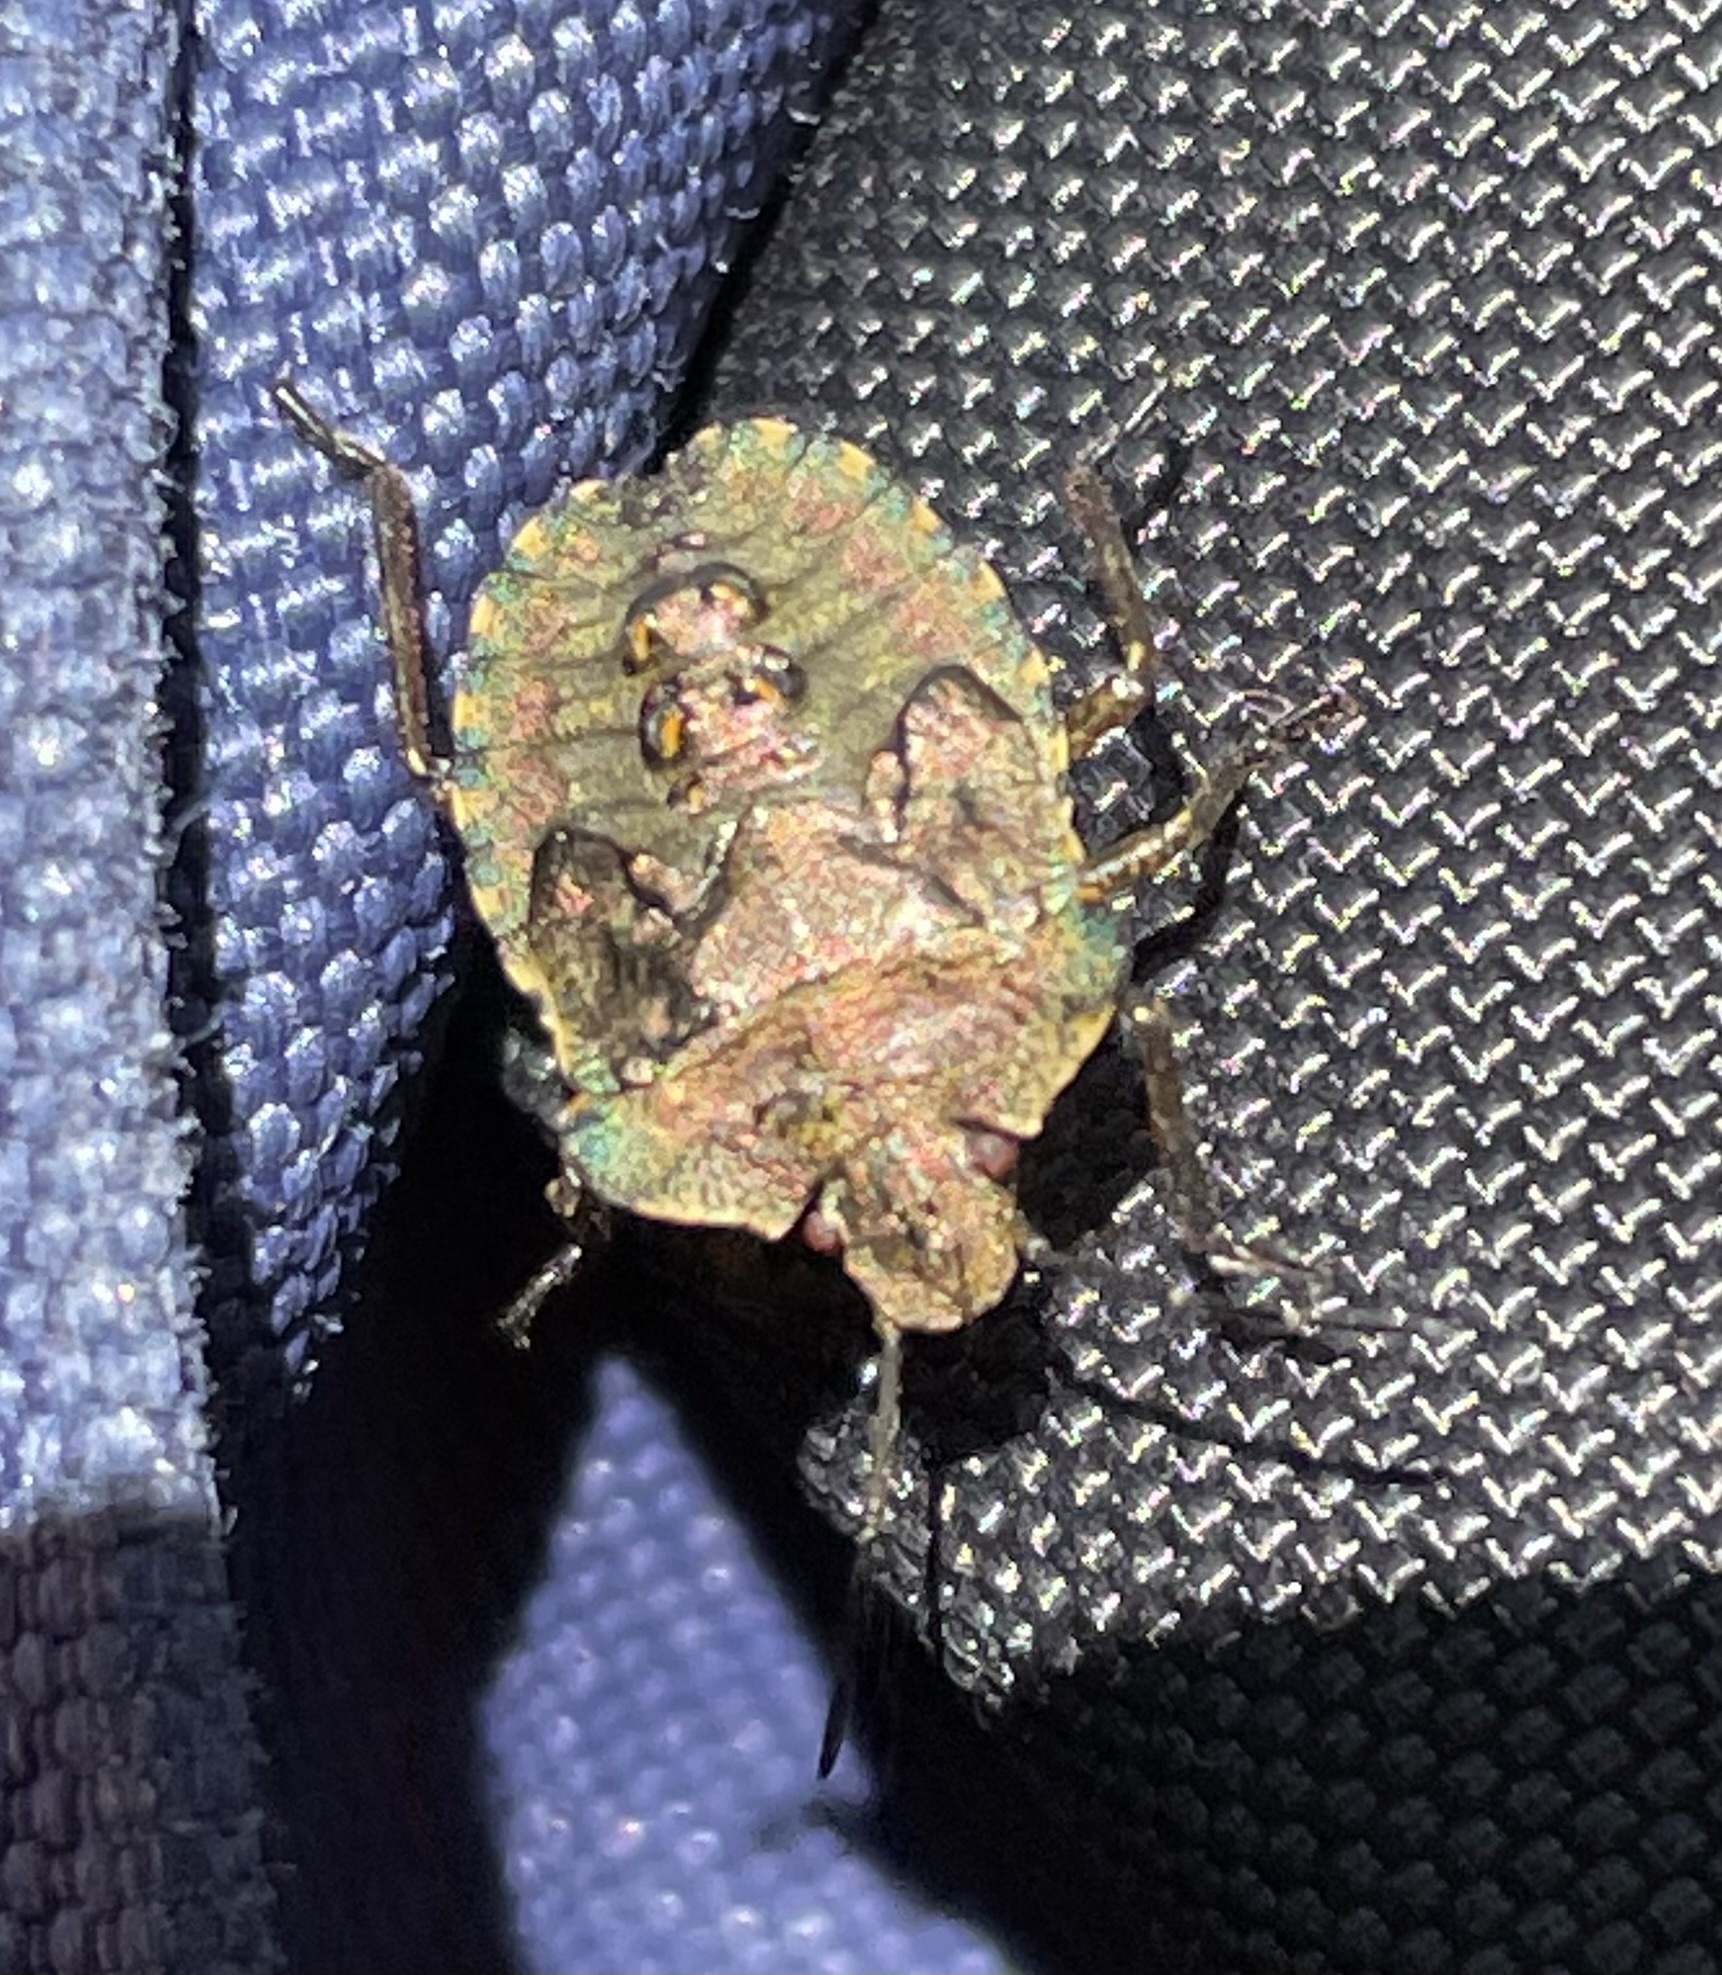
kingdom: Animalia
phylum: Arthropoda
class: Insecta
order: Hemiptera
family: Pentatomidae
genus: Pentatoma
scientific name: Pentatoma rufipes
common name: Forest bug
